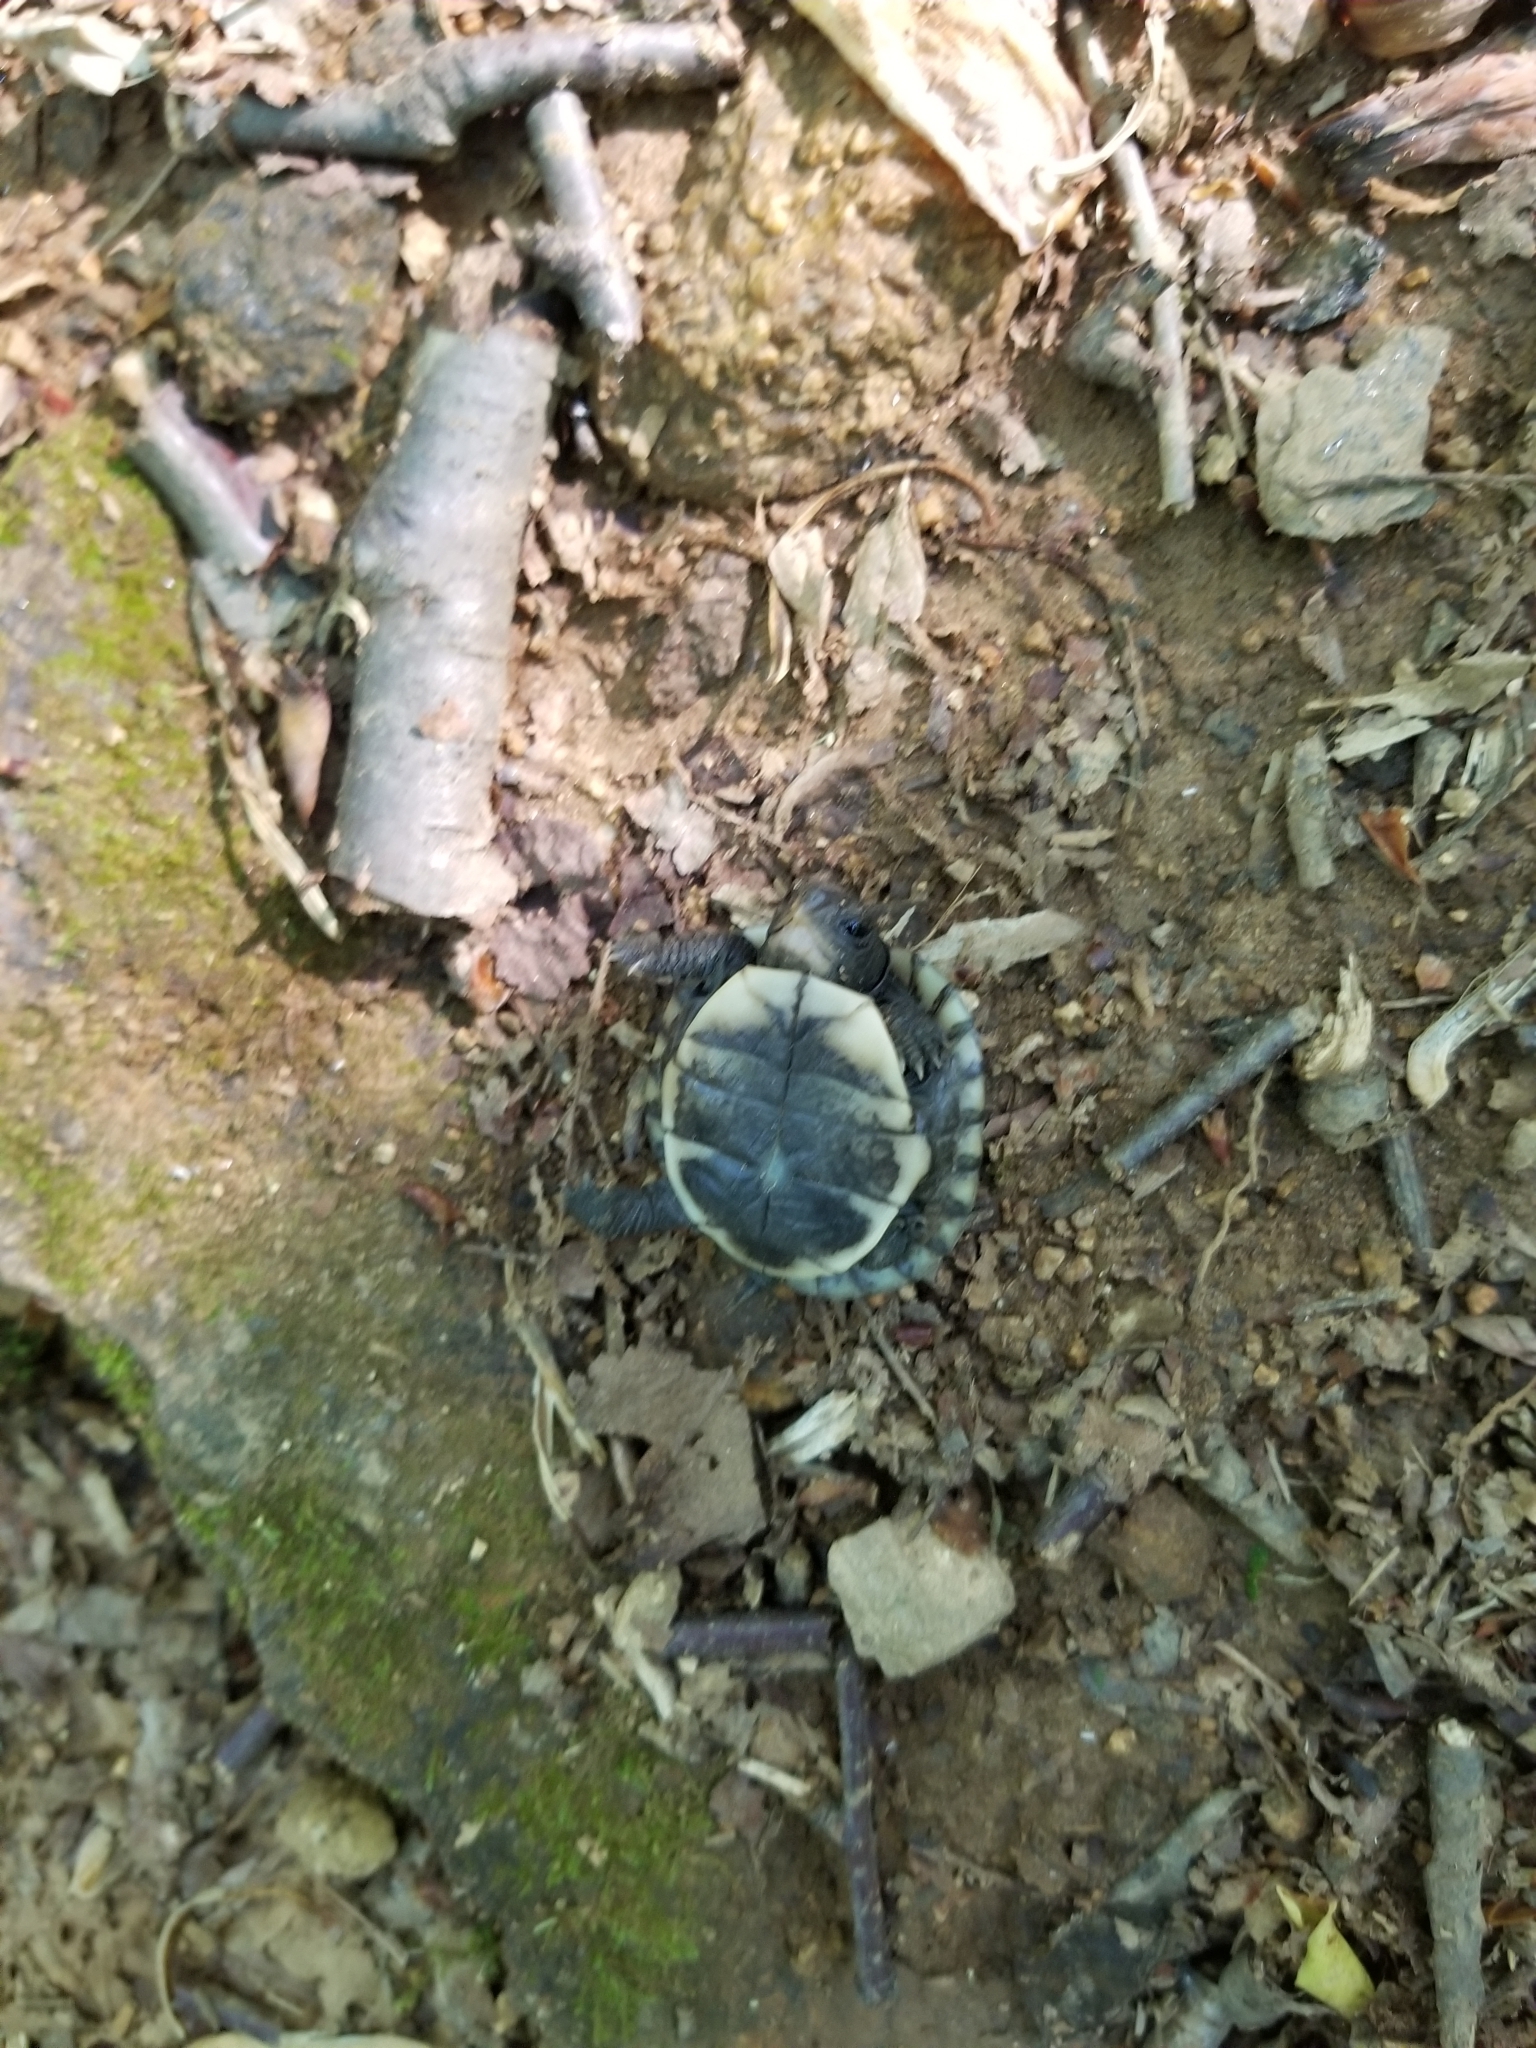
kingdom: Animalia
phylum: Chordata
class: Testudines
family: Emydidae
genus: Terrapene
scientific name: Terrapene carolina
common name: Common box turtle
